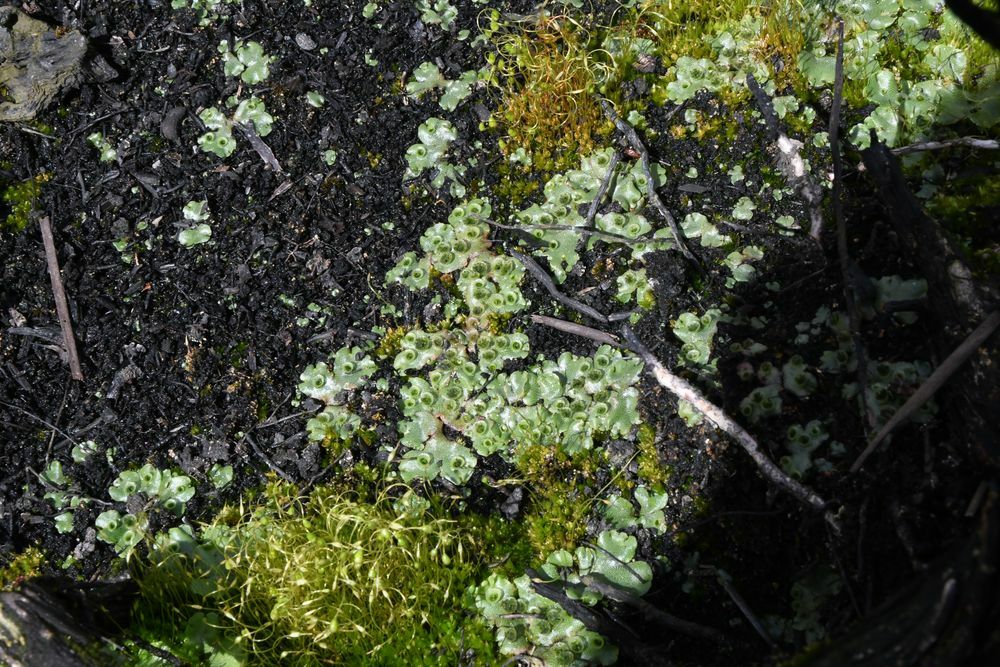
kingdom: Plantae
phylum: Marchantiophyta
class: Marchantiopsida
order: Marchantiales
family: Marchantiaceae
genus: Marchantia
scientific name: Marchantia berteroana
